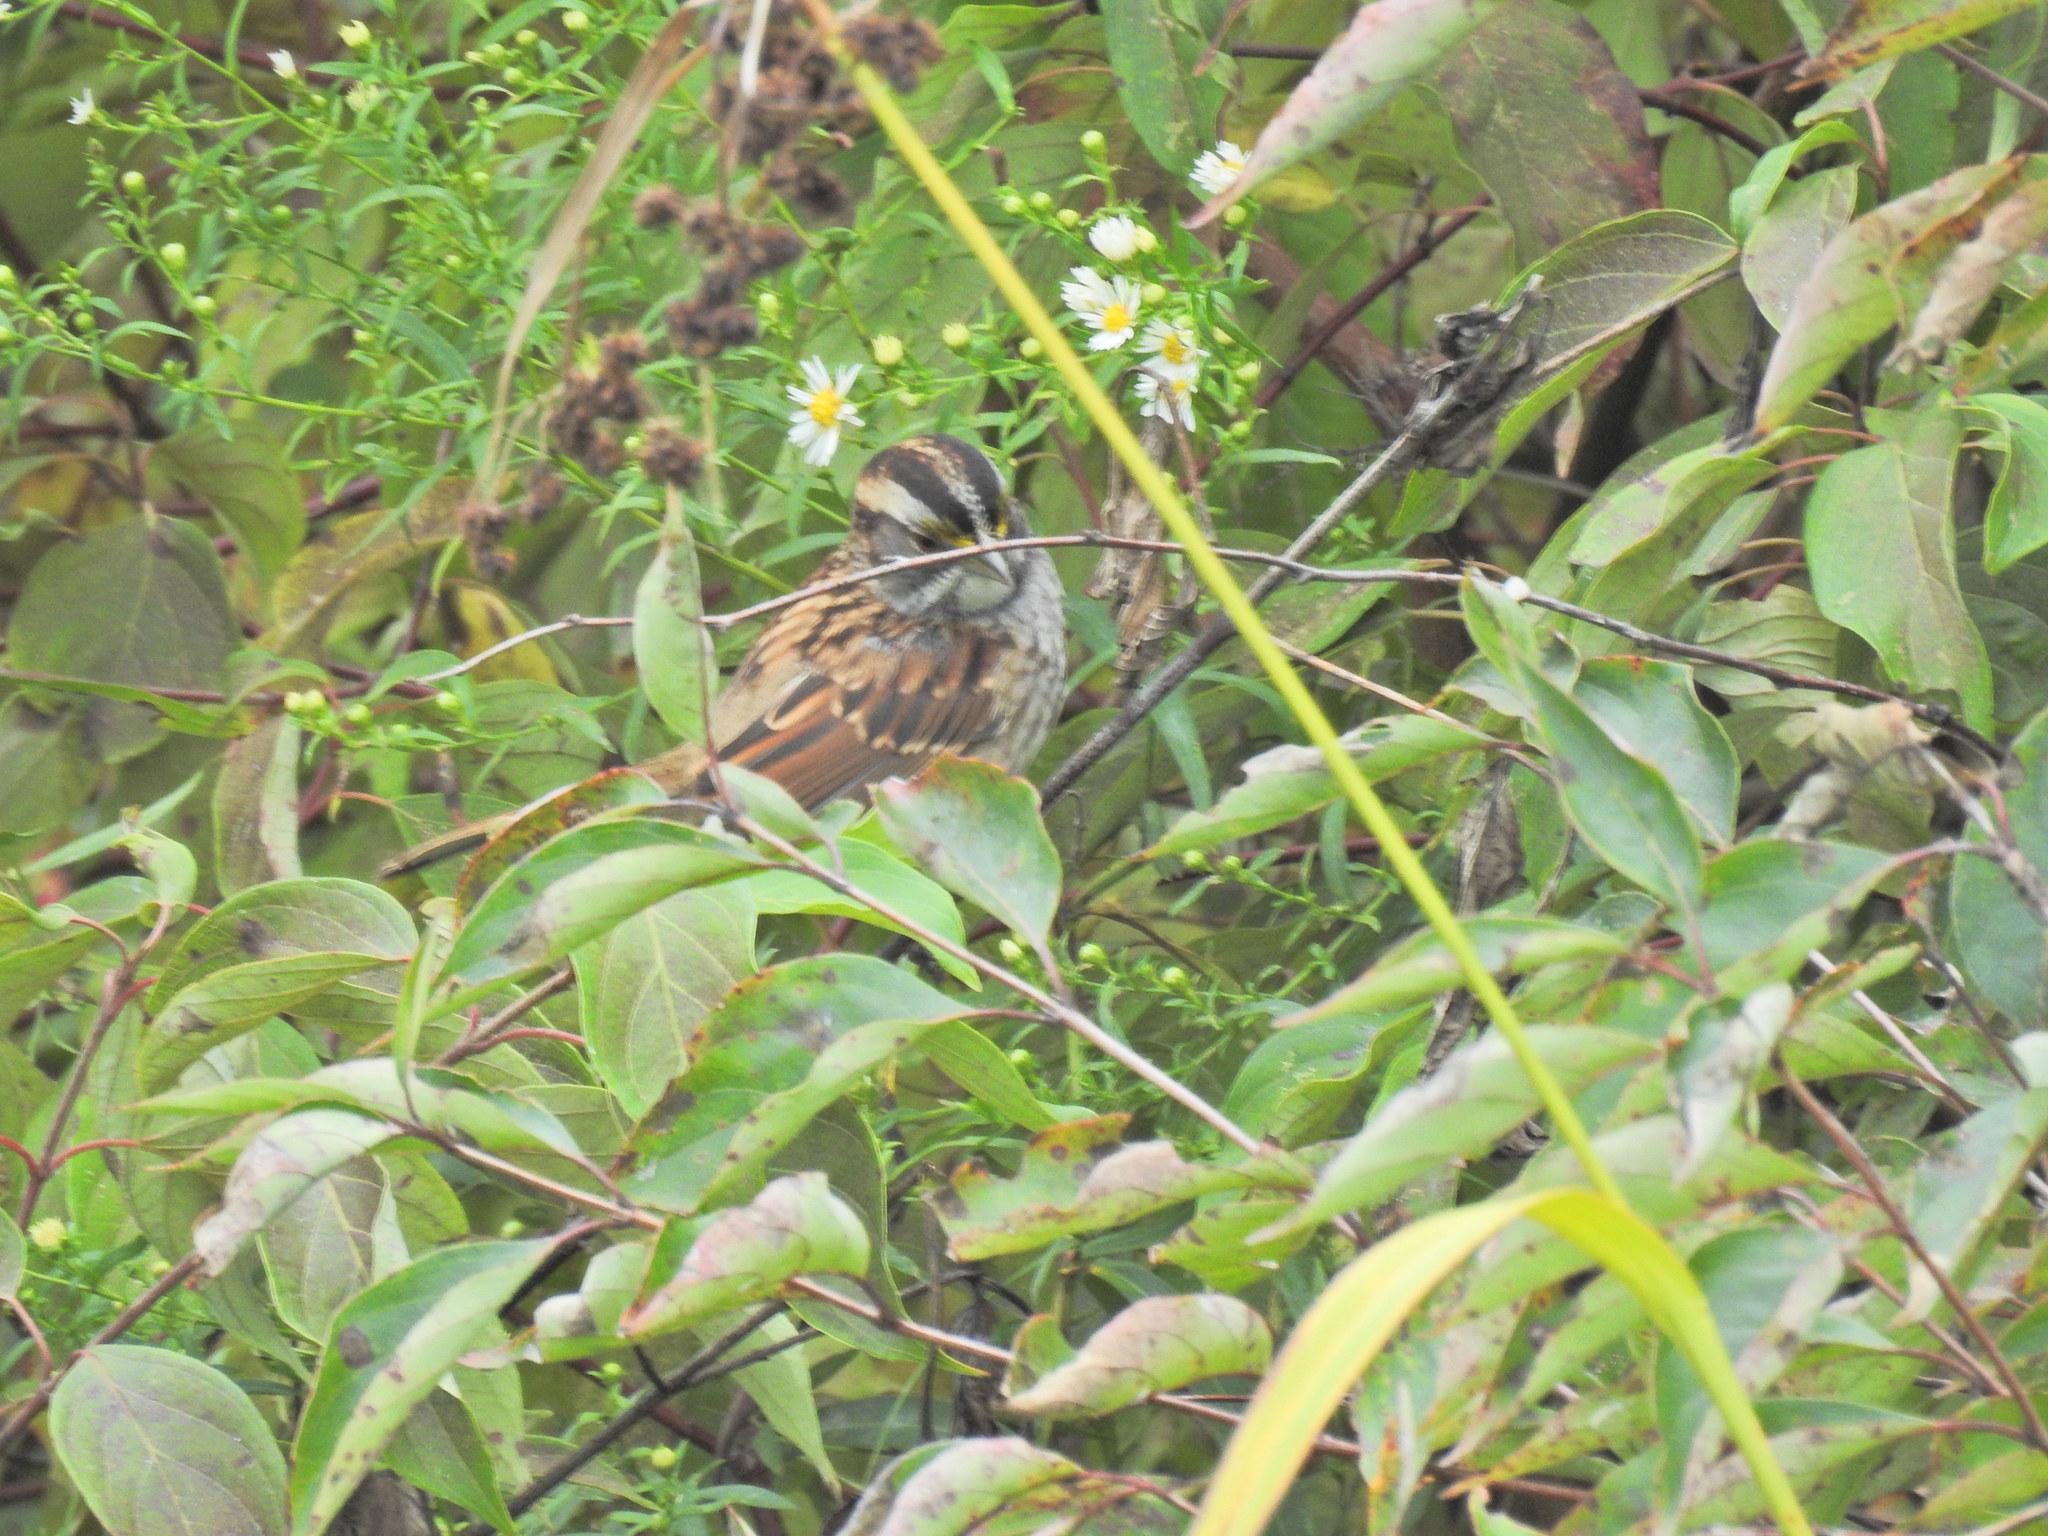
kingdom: Animalia
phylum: Chordata
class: Aves
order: Passeriformes
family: Passerellidae
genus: Zonotrichia
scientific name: Zonotrichia albicollis
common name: White-throated sparrow
